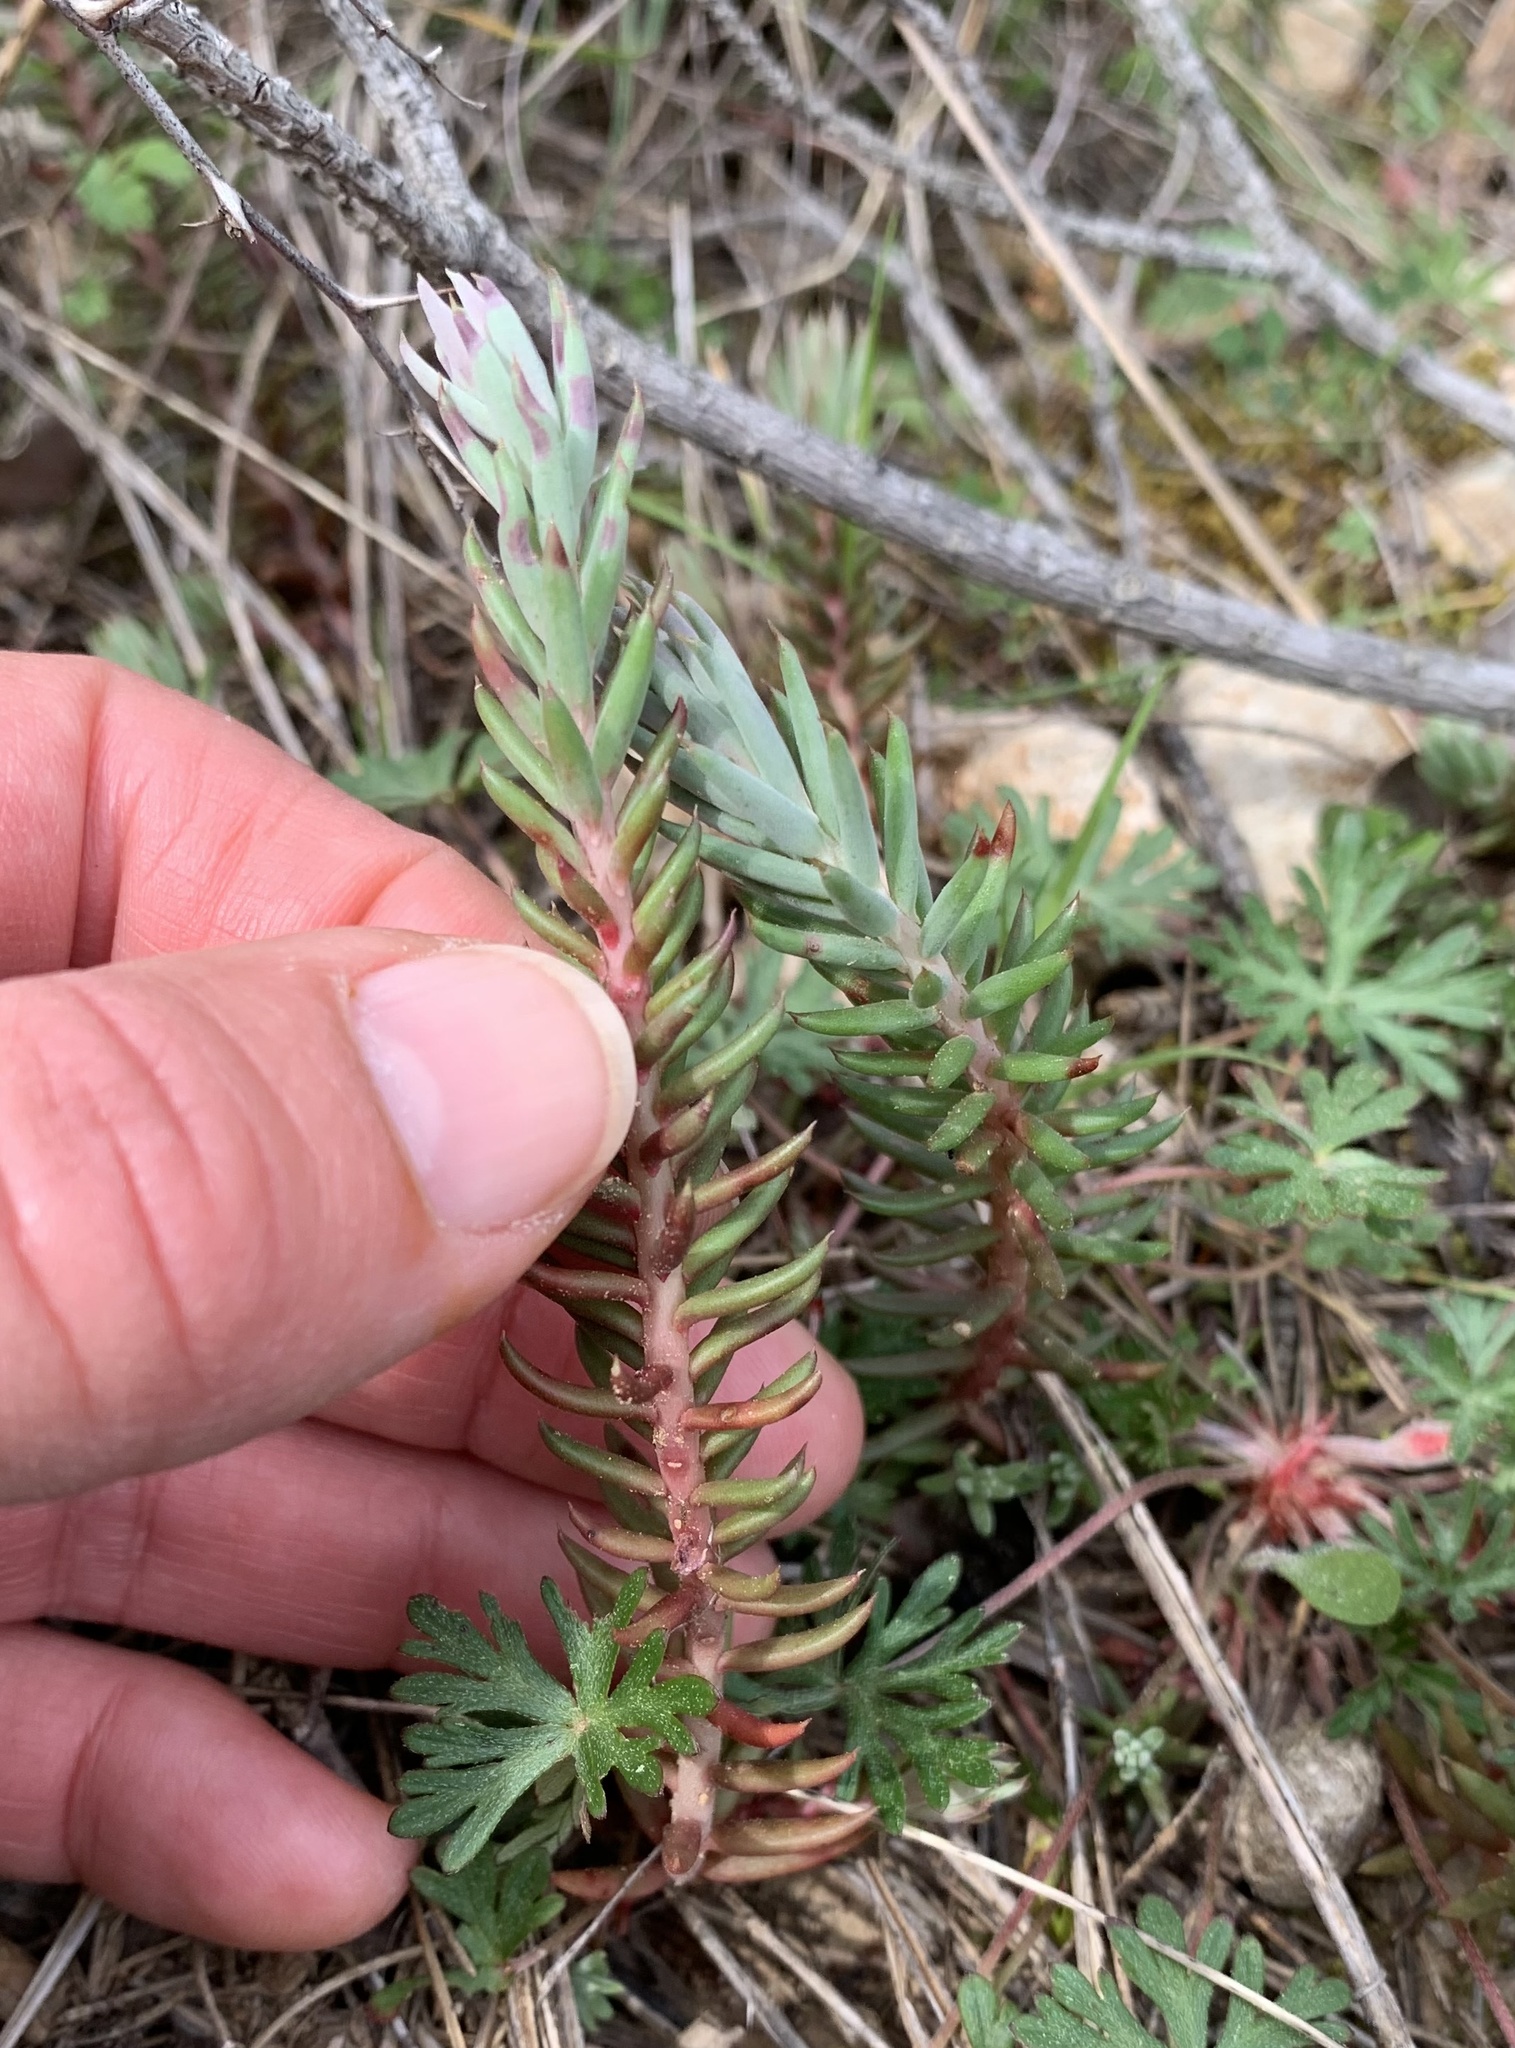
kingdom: Plantae
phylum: Tracheophyta
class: Magnoliopsida
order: Saxifragales
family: Crassulaceae
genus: Petrosedum
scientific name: Petrosedum ochroleucum
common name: European stonecrop
